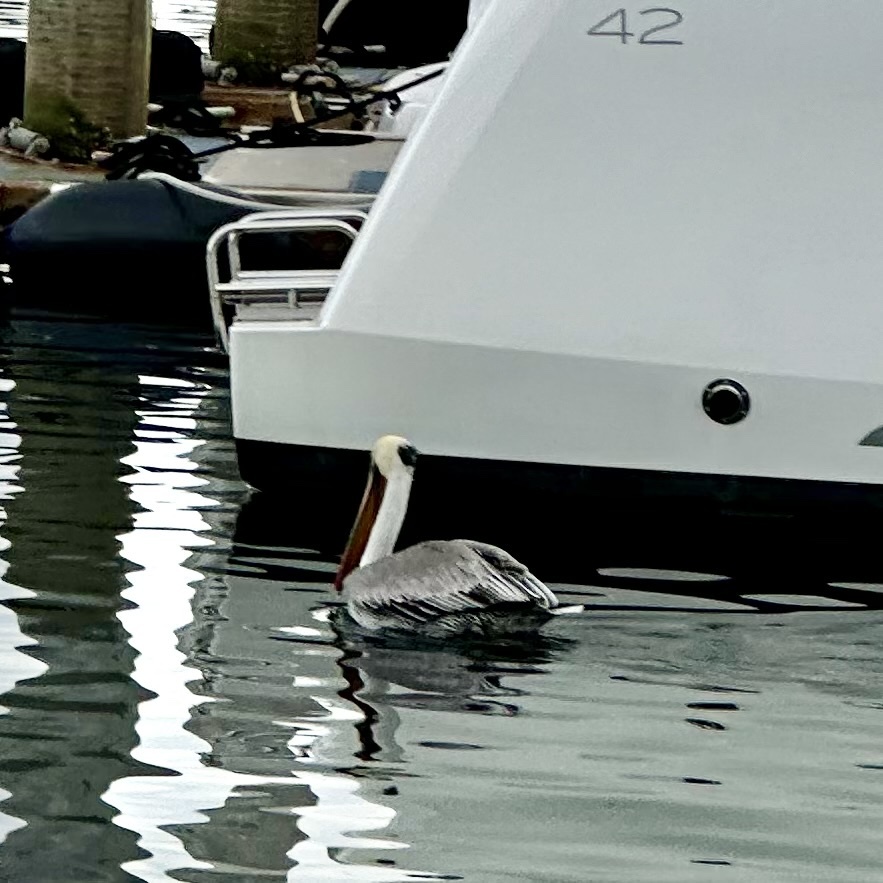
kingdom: Animalia
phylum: Chordata
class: Aves
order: Pelecaniformes
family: Pelecanidae
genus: Pelecanus
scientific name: Pelecanus occidentalis
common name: Brown pelican
